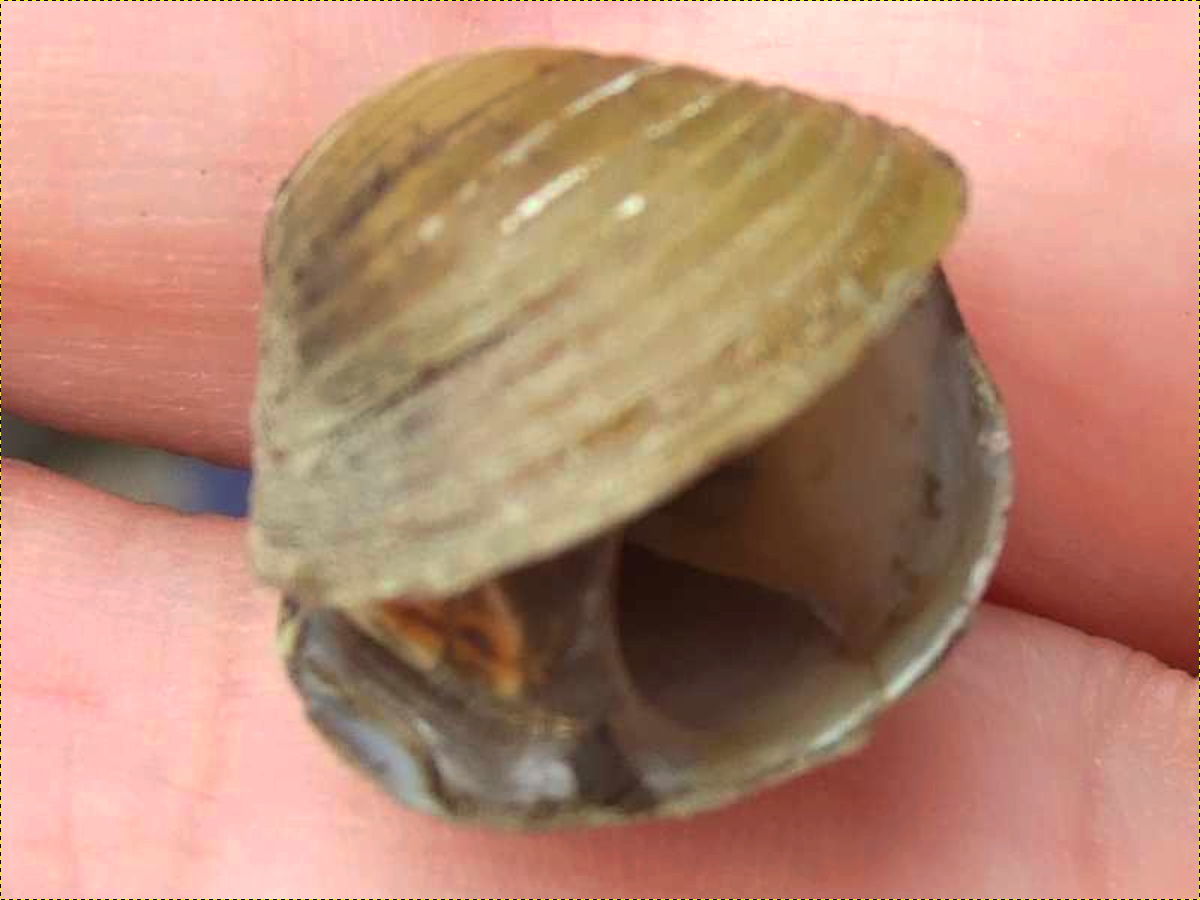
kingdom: Animalia
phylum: Mollusca
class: Bivalvia
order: Venerida
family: Cyrenidae
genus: Corbicula
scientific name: Corbicula fluminea
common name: Asian clam
